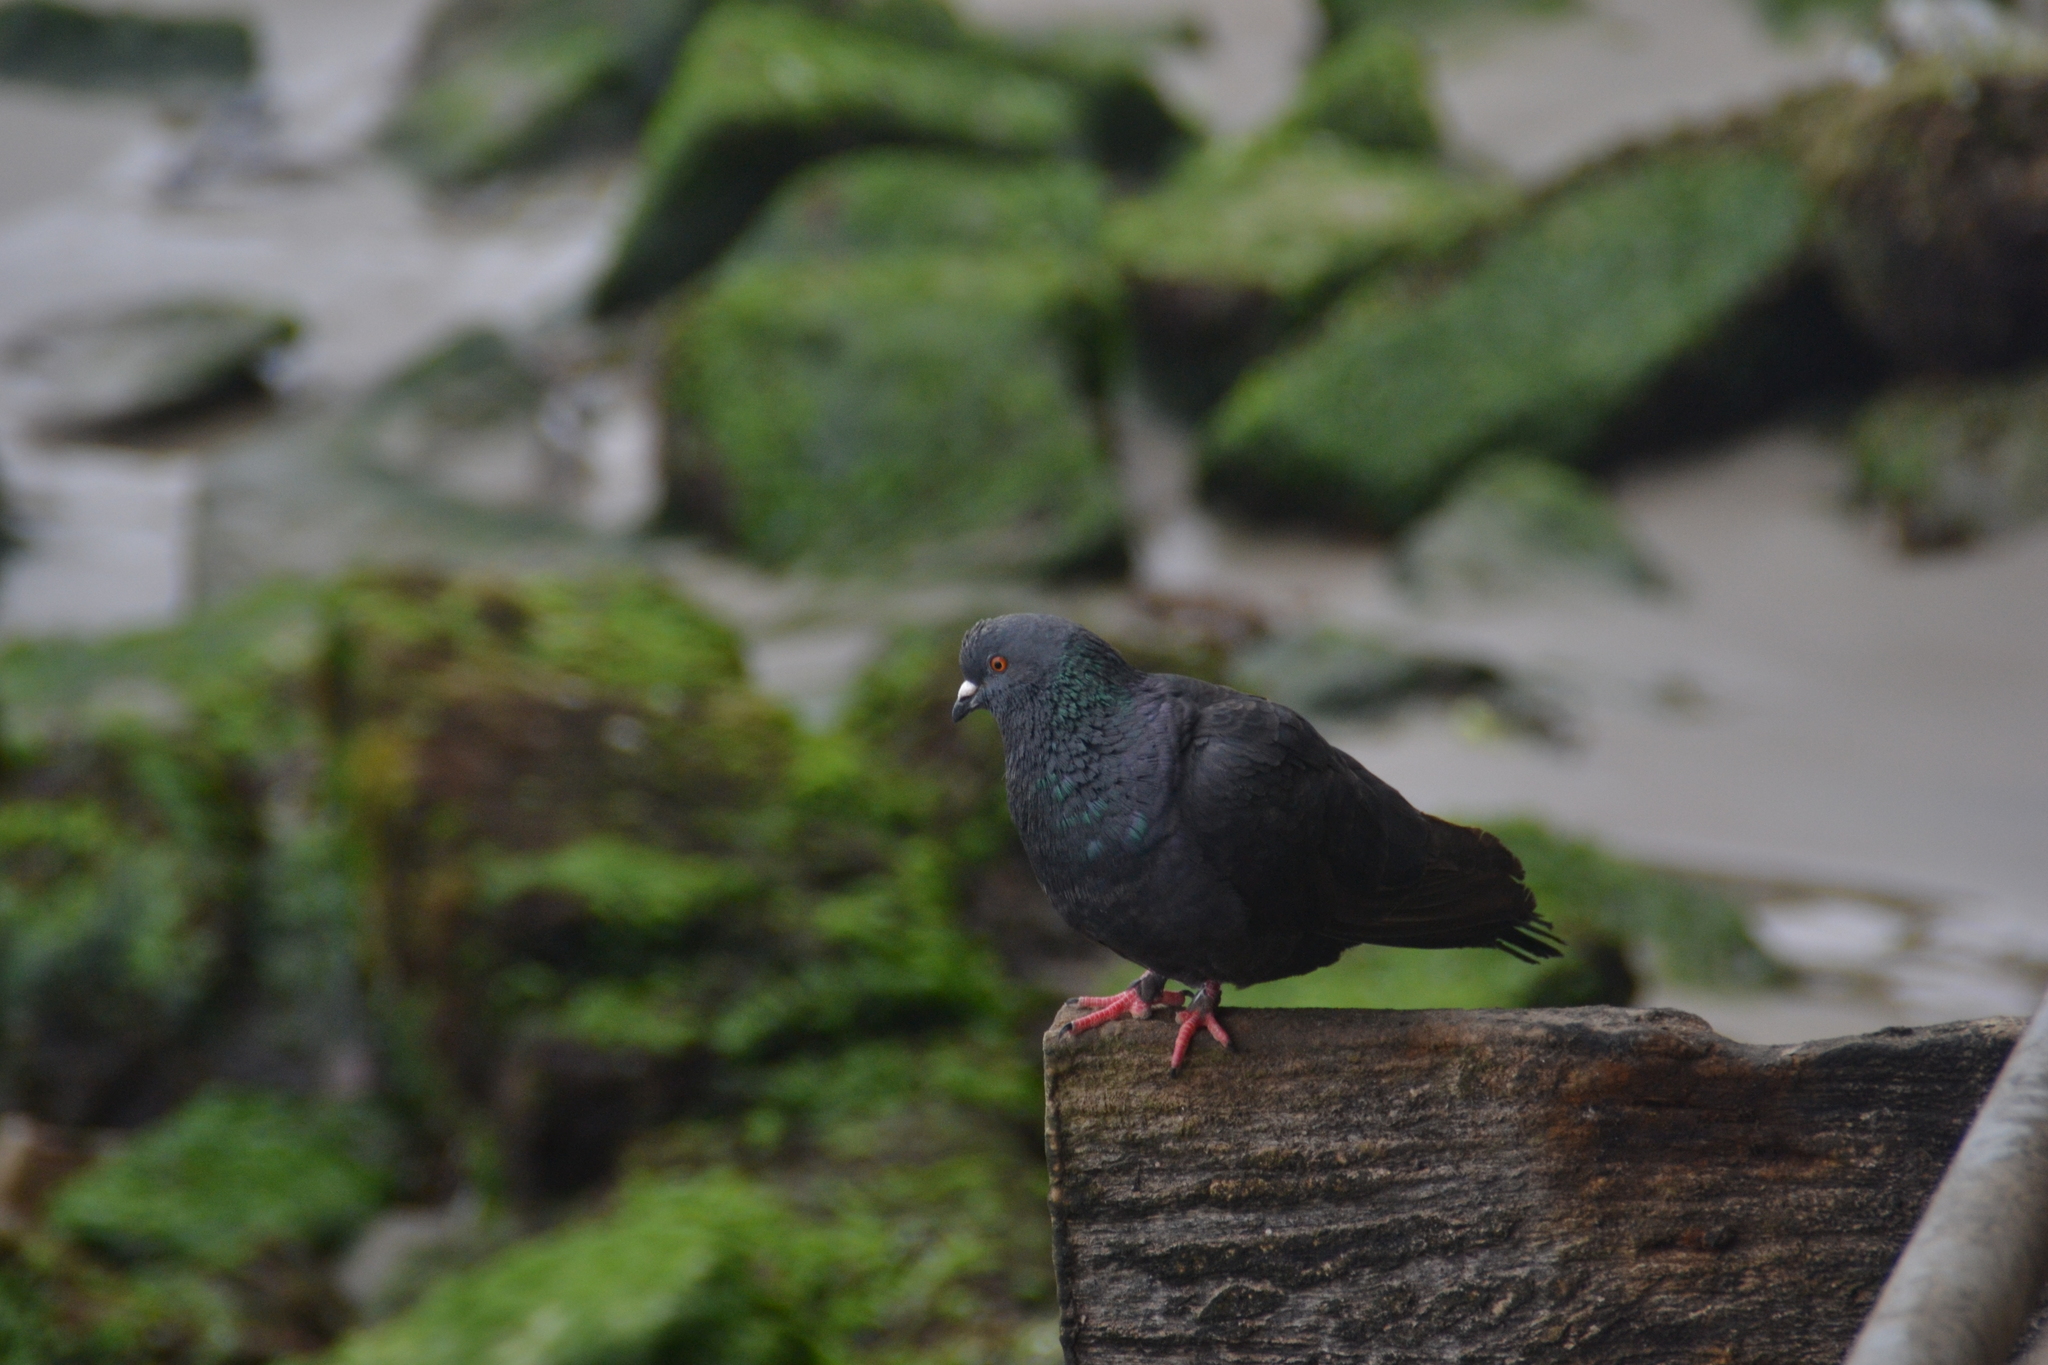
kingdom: Animalia
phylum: Chordata
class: Aves
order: Columbiformes
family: Columbidae
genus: Columba
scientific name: Columba livia
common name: Rock pigeon
